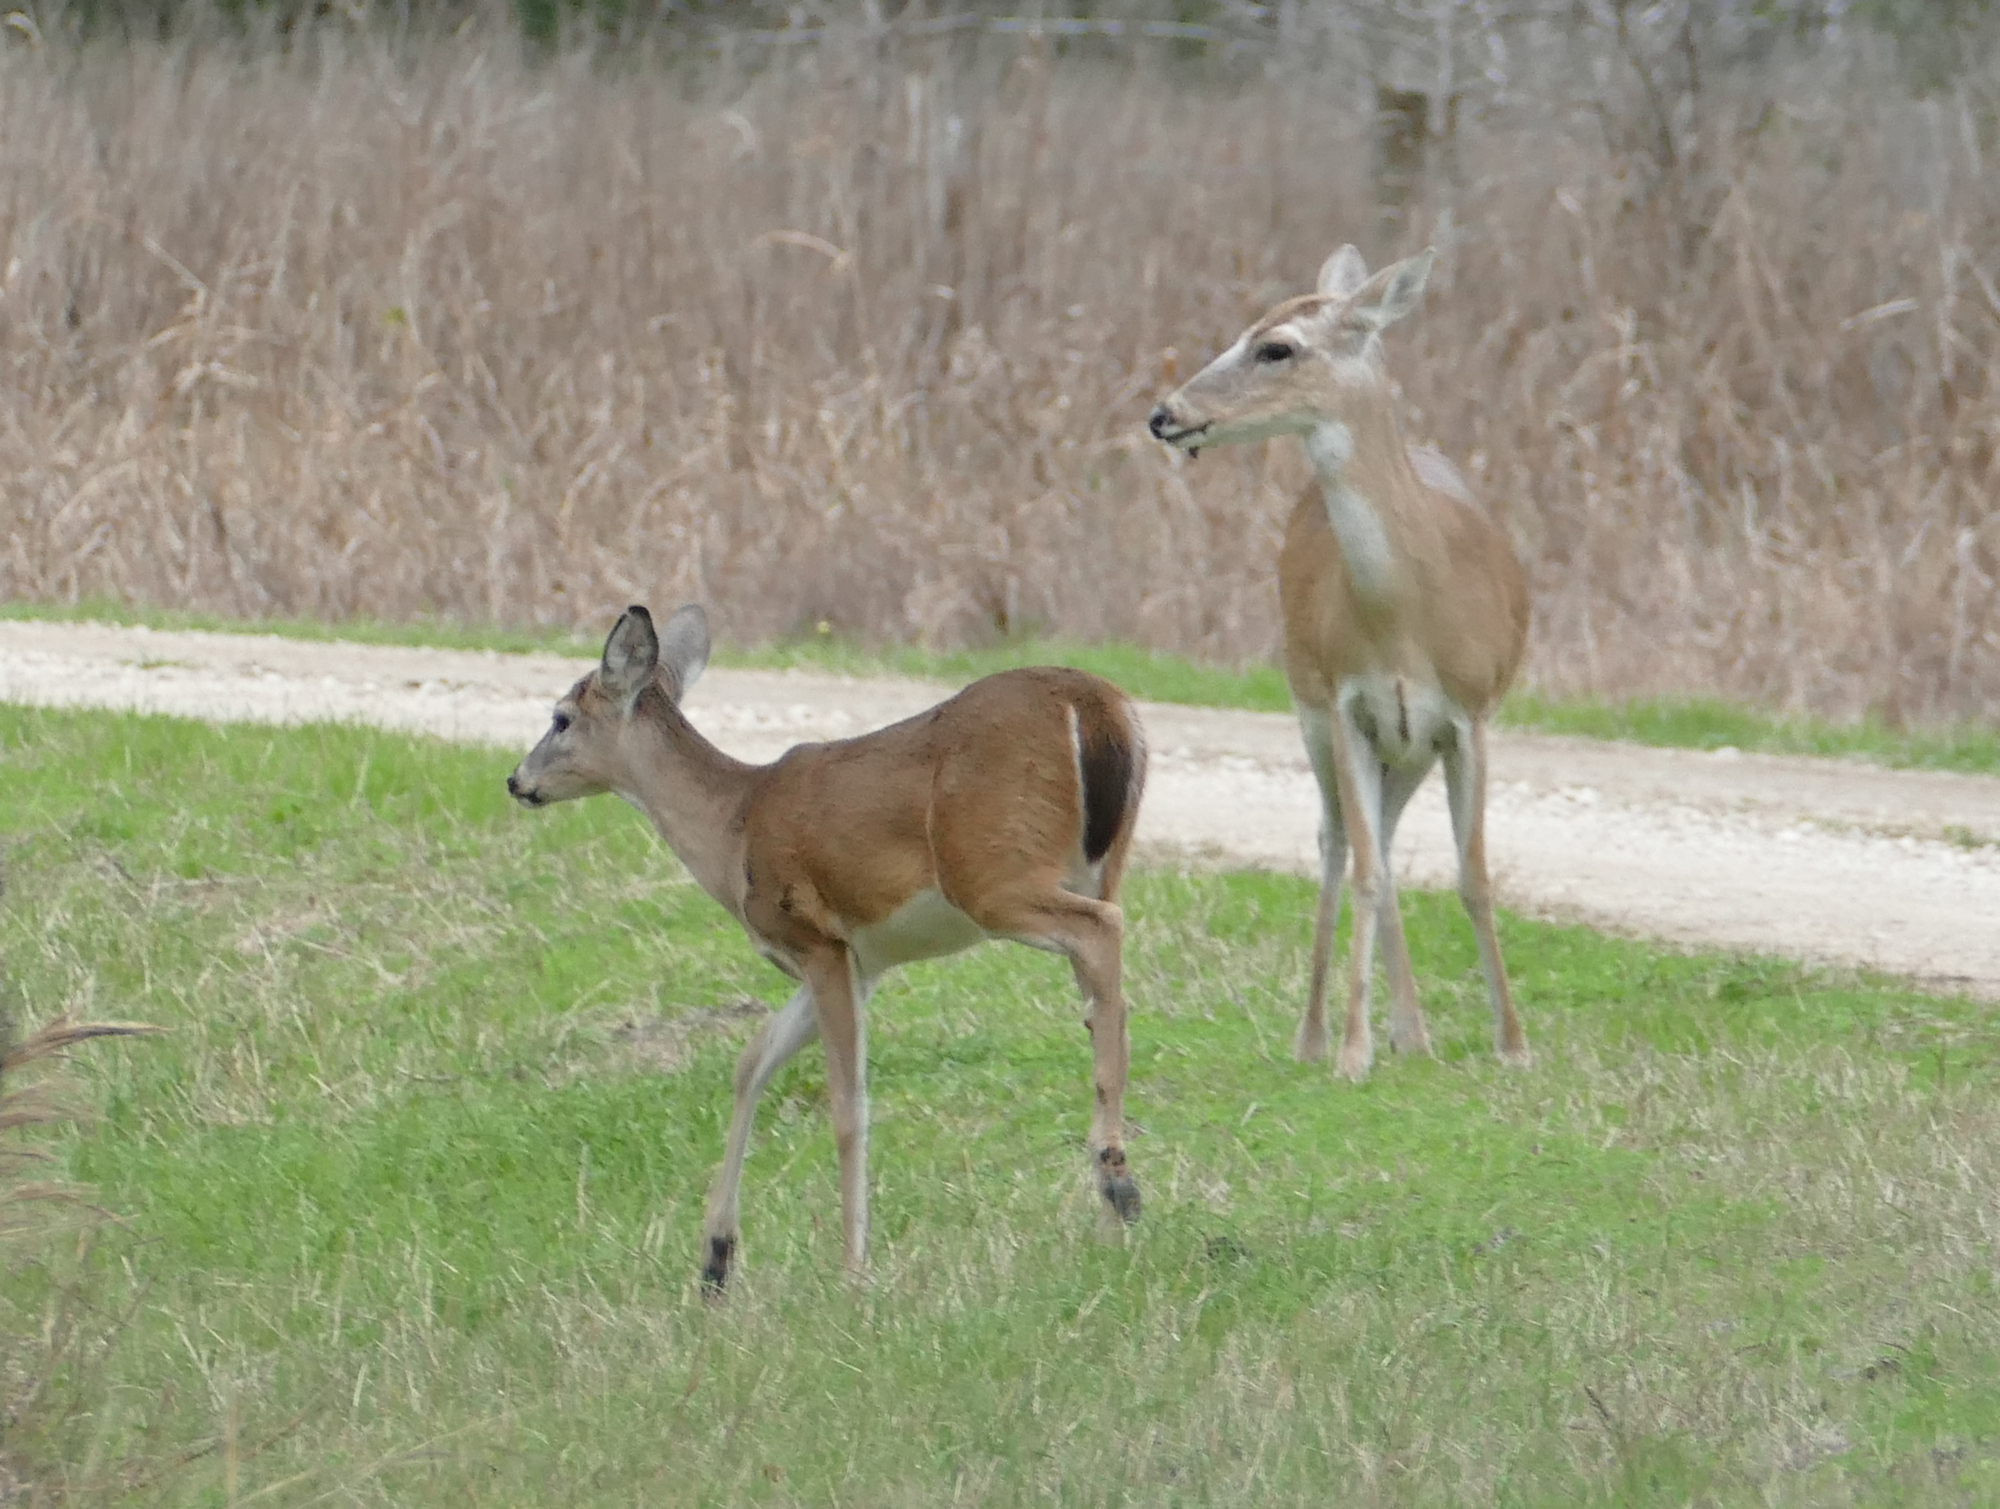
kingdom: Animalia
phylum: Chordata
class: Mammalia
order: Artiodactyla
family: Cervidae
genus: Odocoileus
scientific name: Odocoileus virginianus
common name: White-tailed deer
